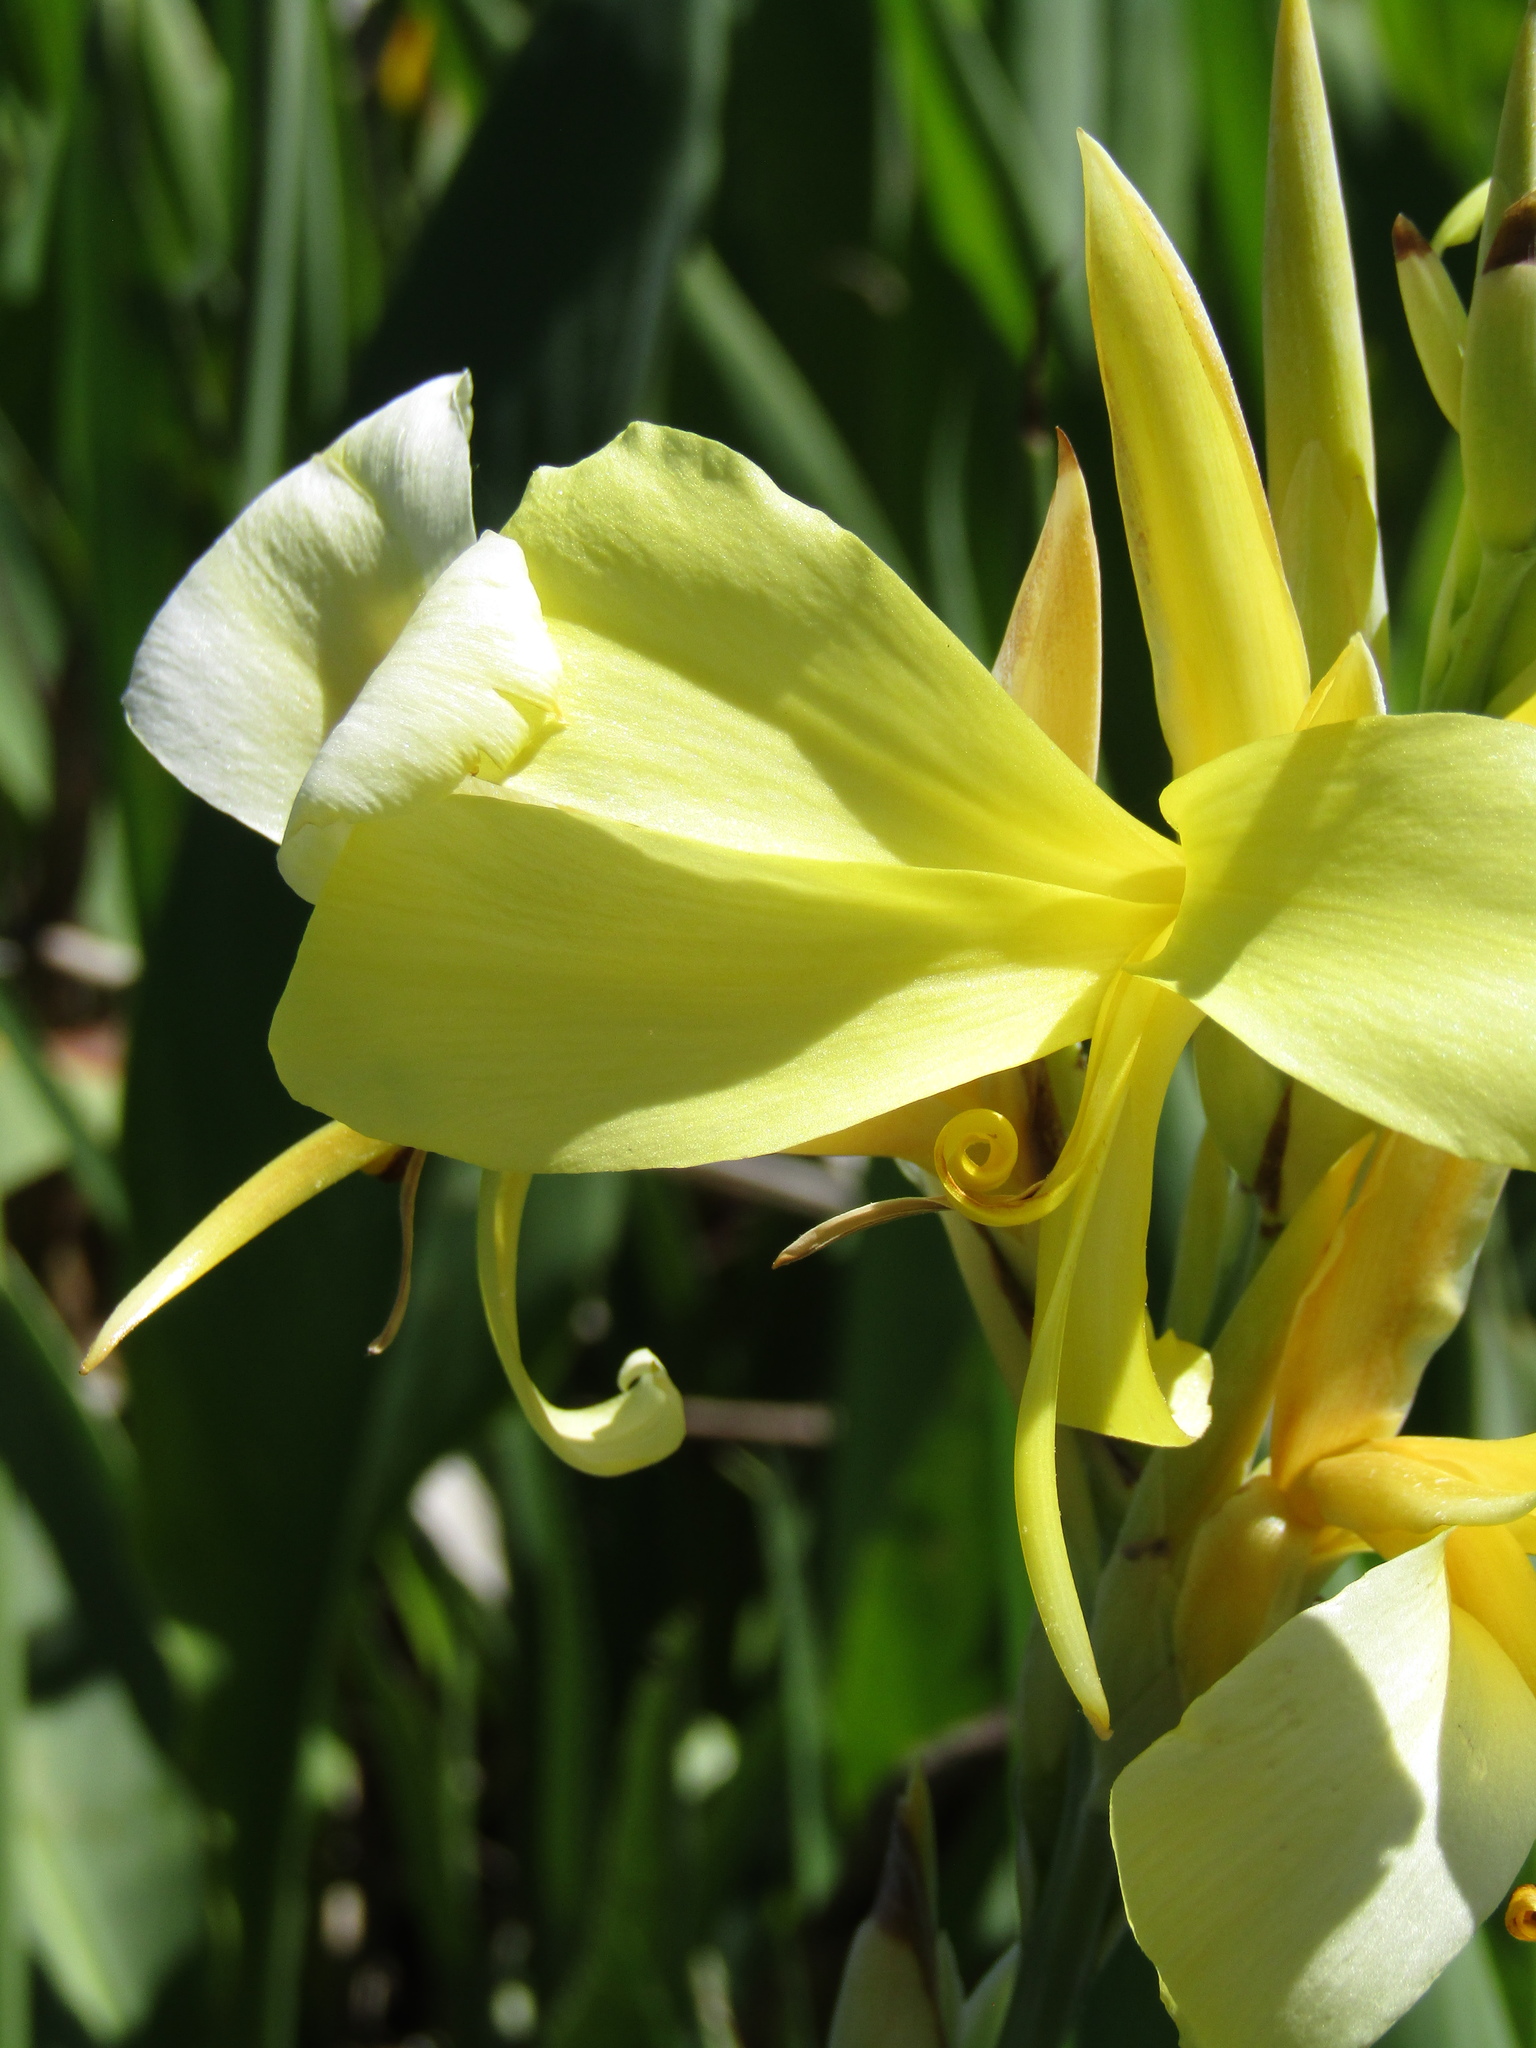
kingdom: Plantae
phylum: Tracheophyta
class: Liliopsida
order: Zingiberales
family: Cannaceae
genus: Canna
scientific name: Canna glauca
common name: Louisiana canna
